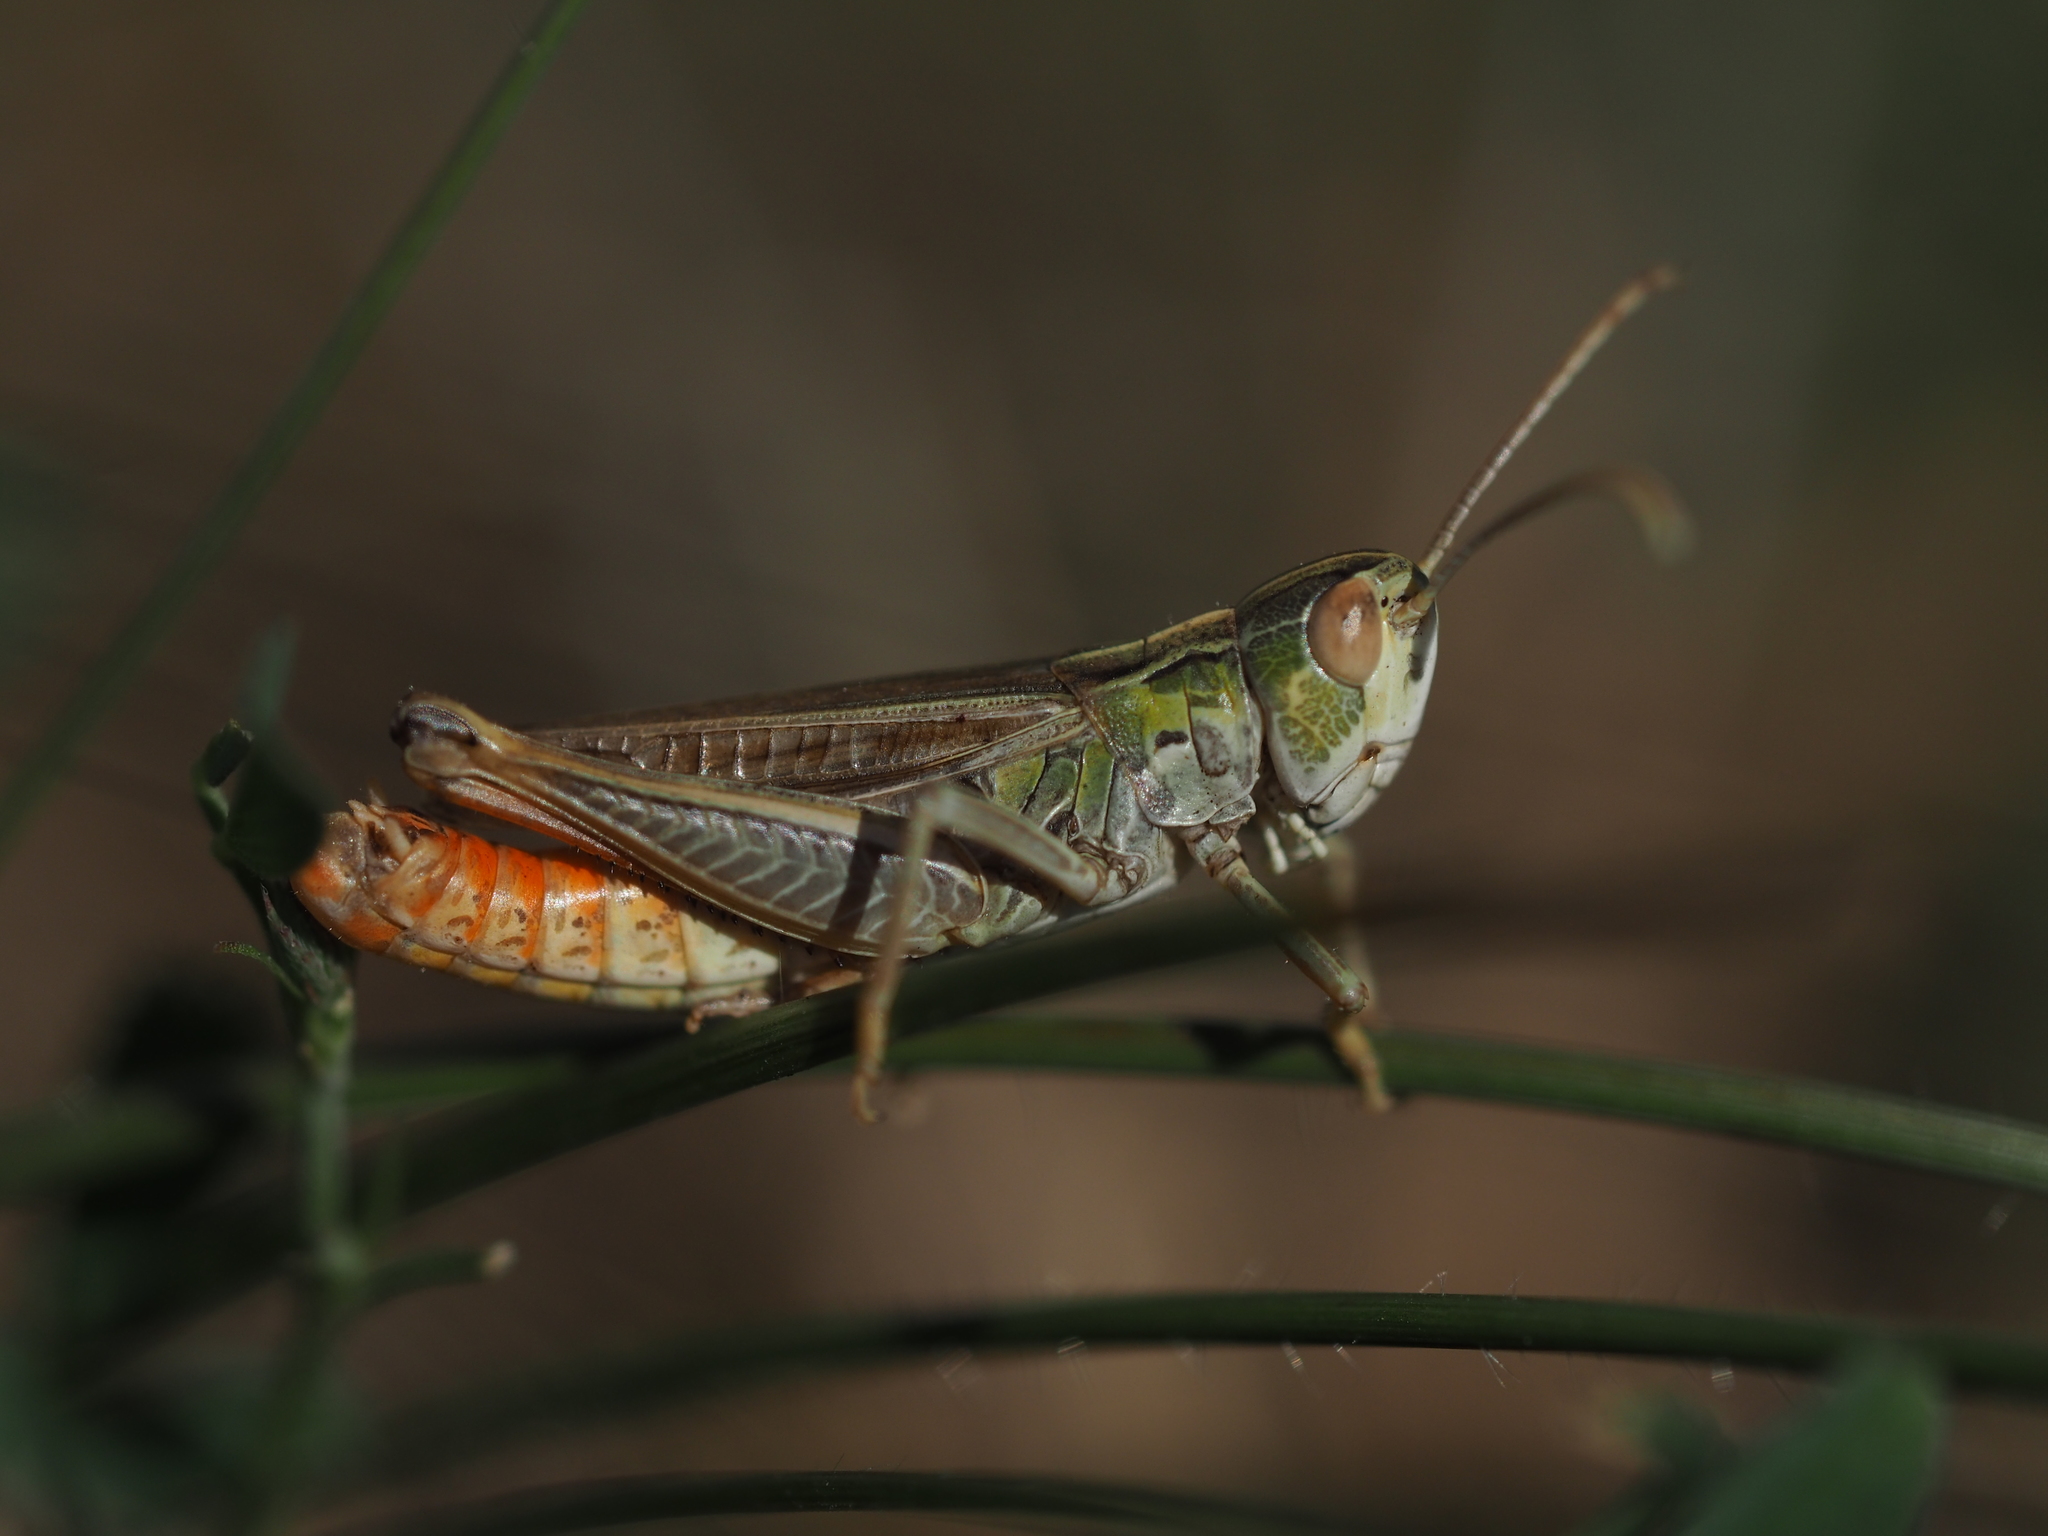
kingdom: Animalia
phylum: Arthropoda
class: Insecta
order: Orthoptera
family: Acrididae
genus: Stenobothrus
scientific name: Stenobothrus nigromaculatus
